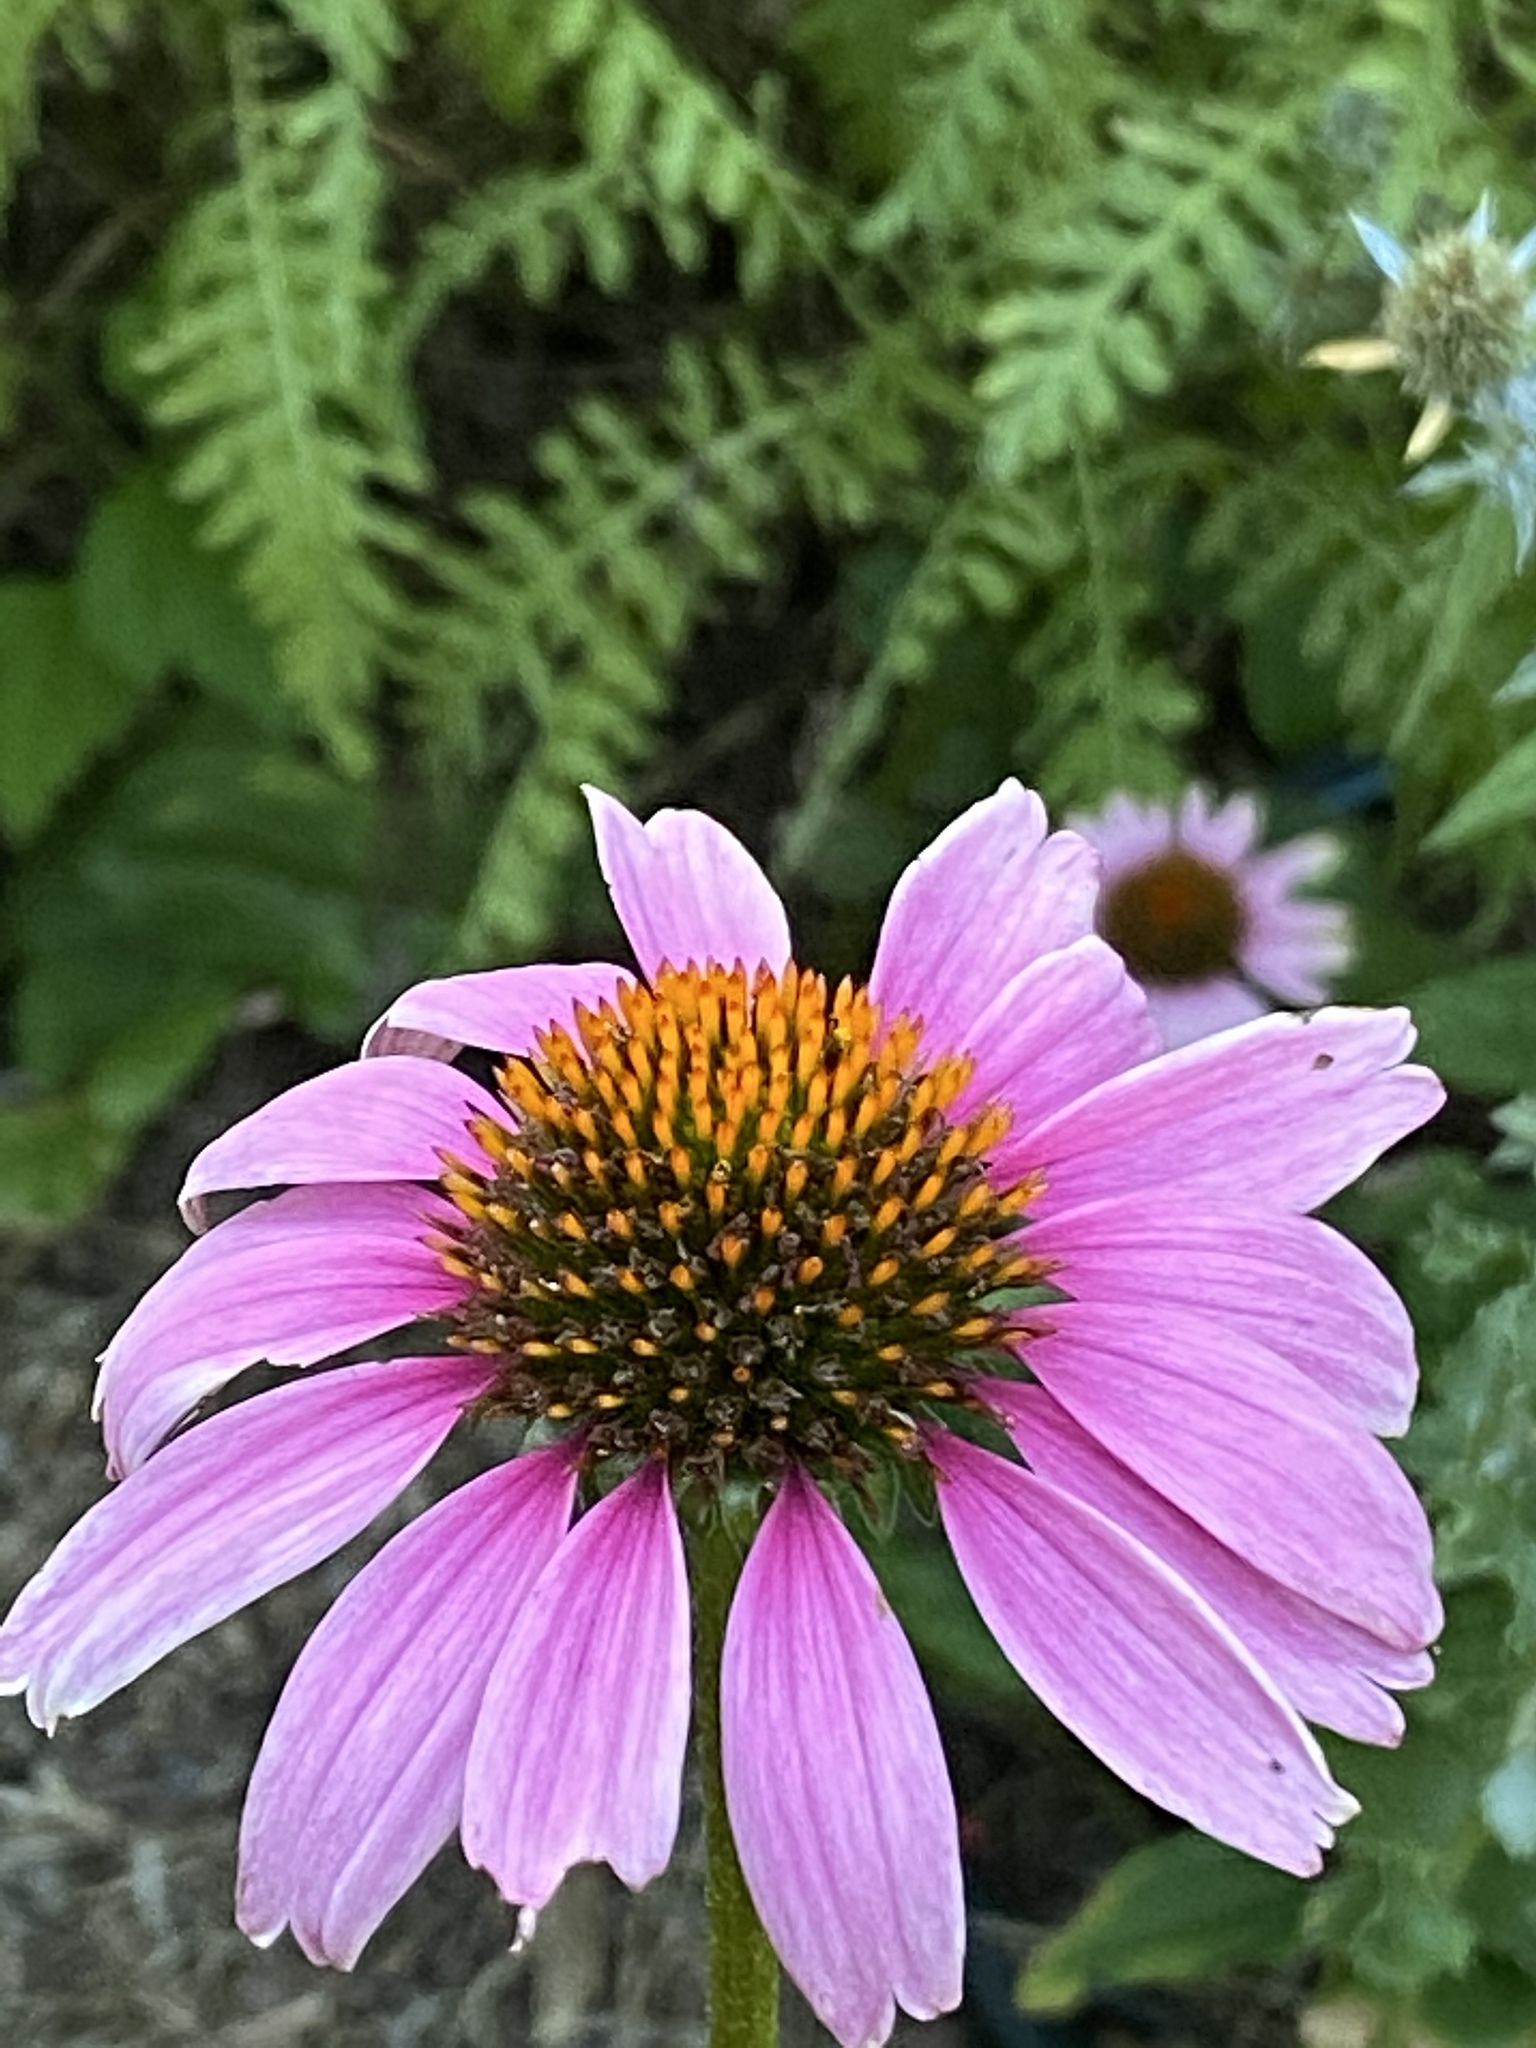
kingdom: Plantae
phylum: Tracheophyta
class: Magnoliopsida
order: Asterales
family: Asteraceae
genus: Echinacea
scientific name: Echinacea purpurea
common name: Broad-leaved purple coneflower
